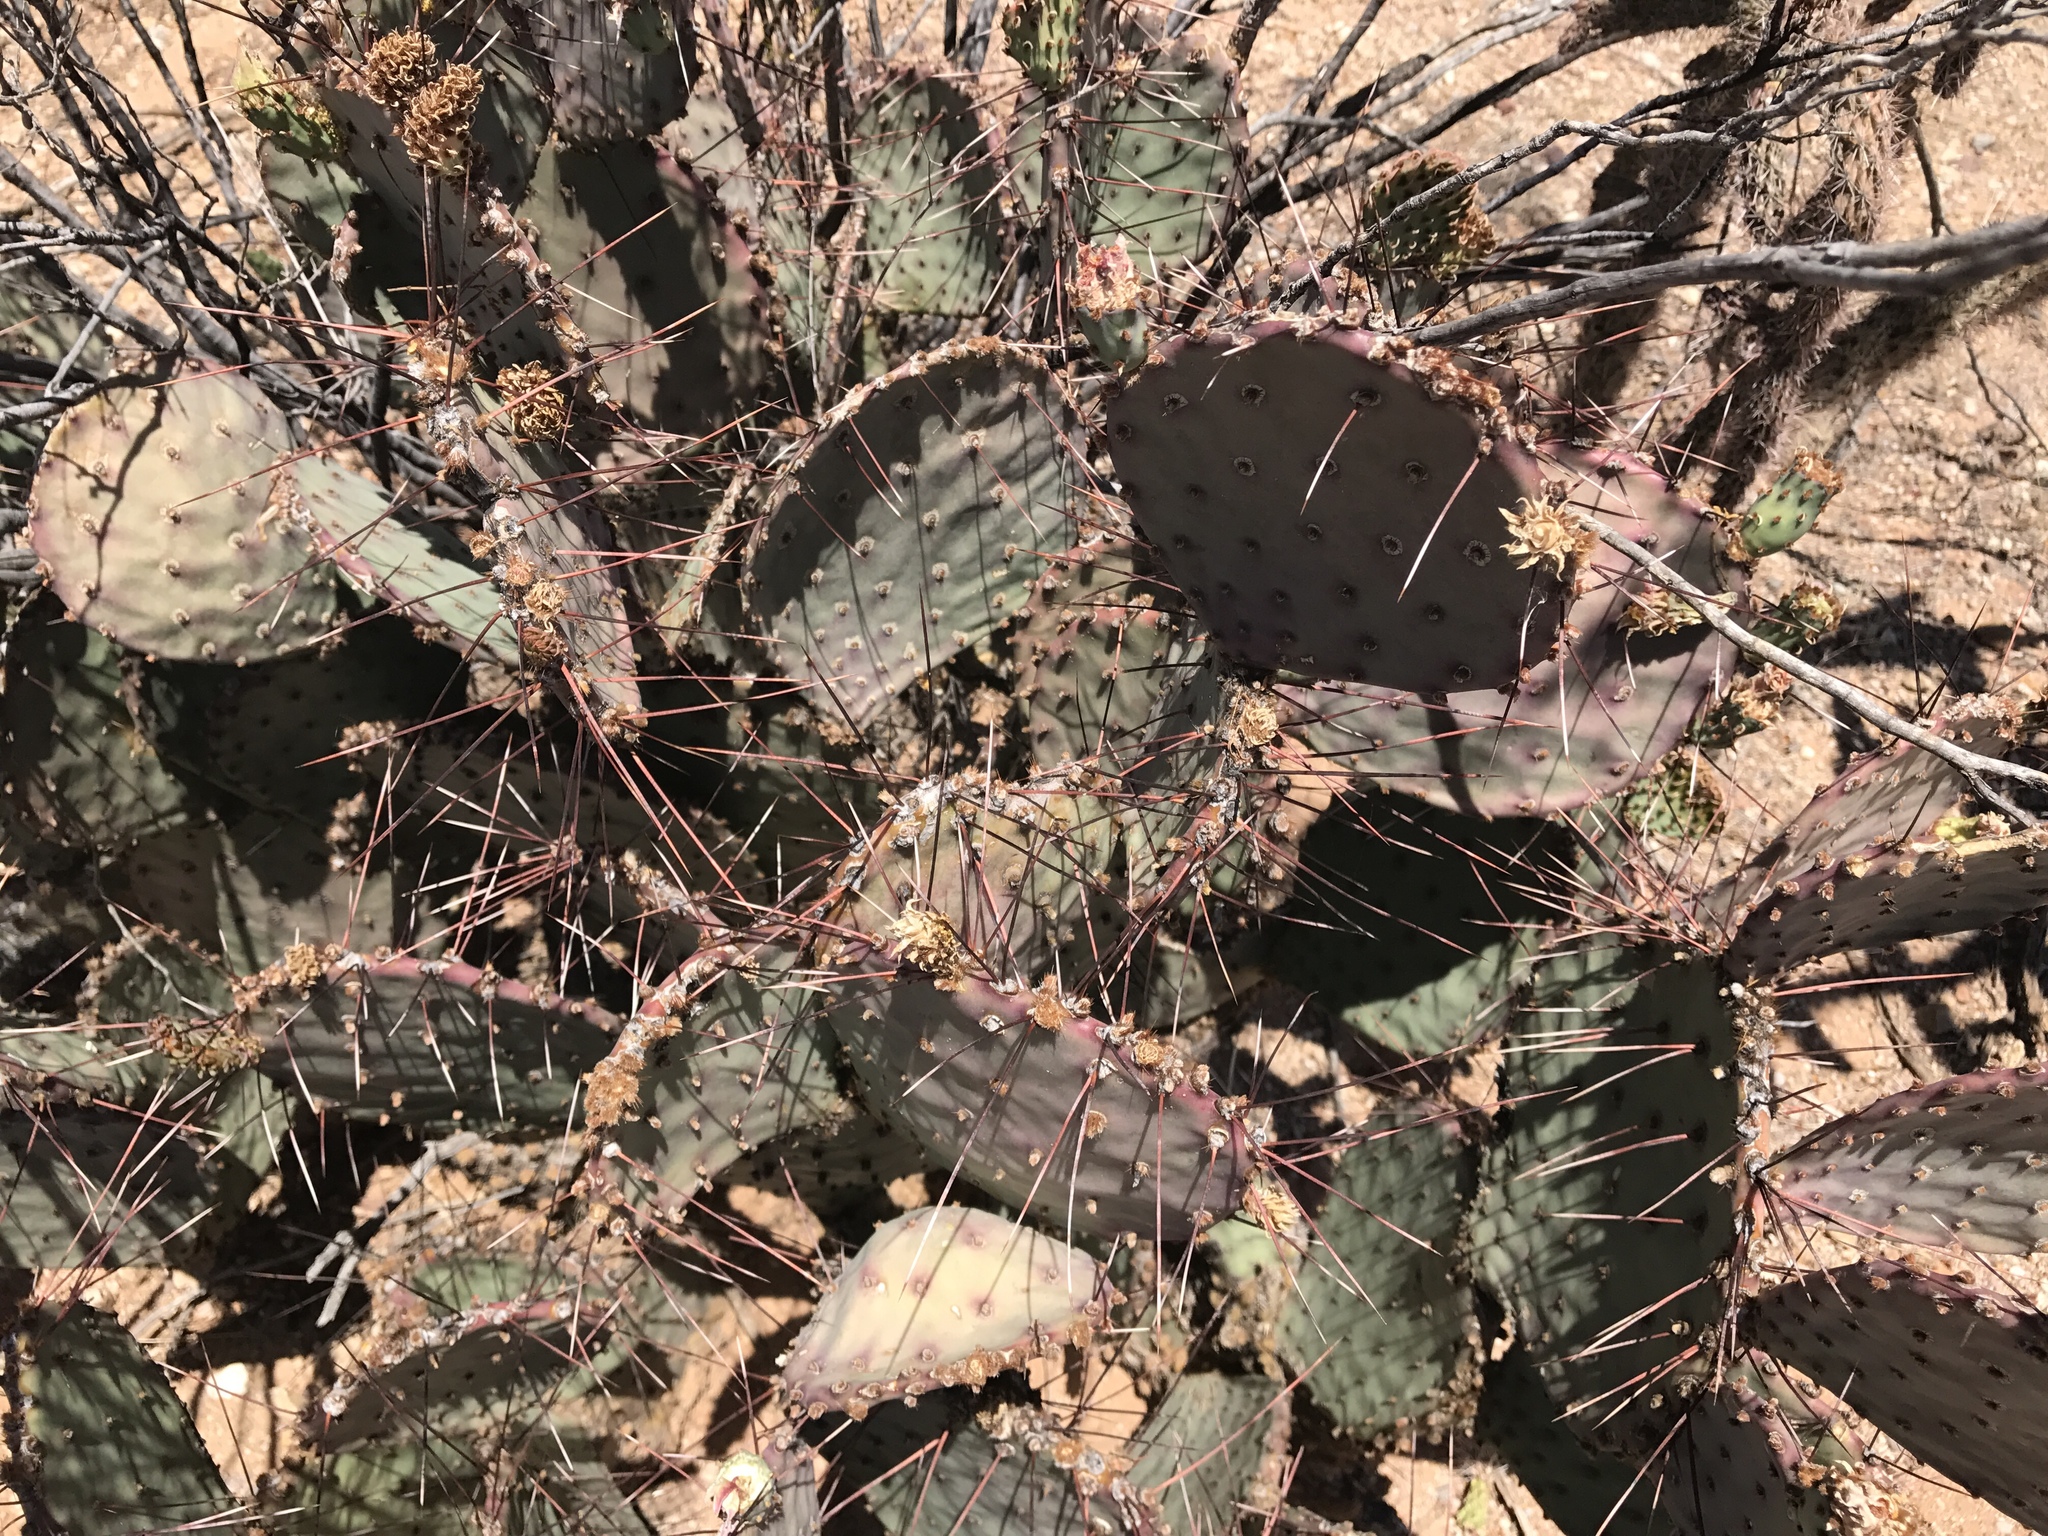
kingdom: Plantae
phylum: Tracheophyta
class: Magnoliopsida
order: Caryophyllales
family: Cactaceae
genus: Opuntia
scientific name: Opuntia macrocentra
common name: Purple prickly-pear
